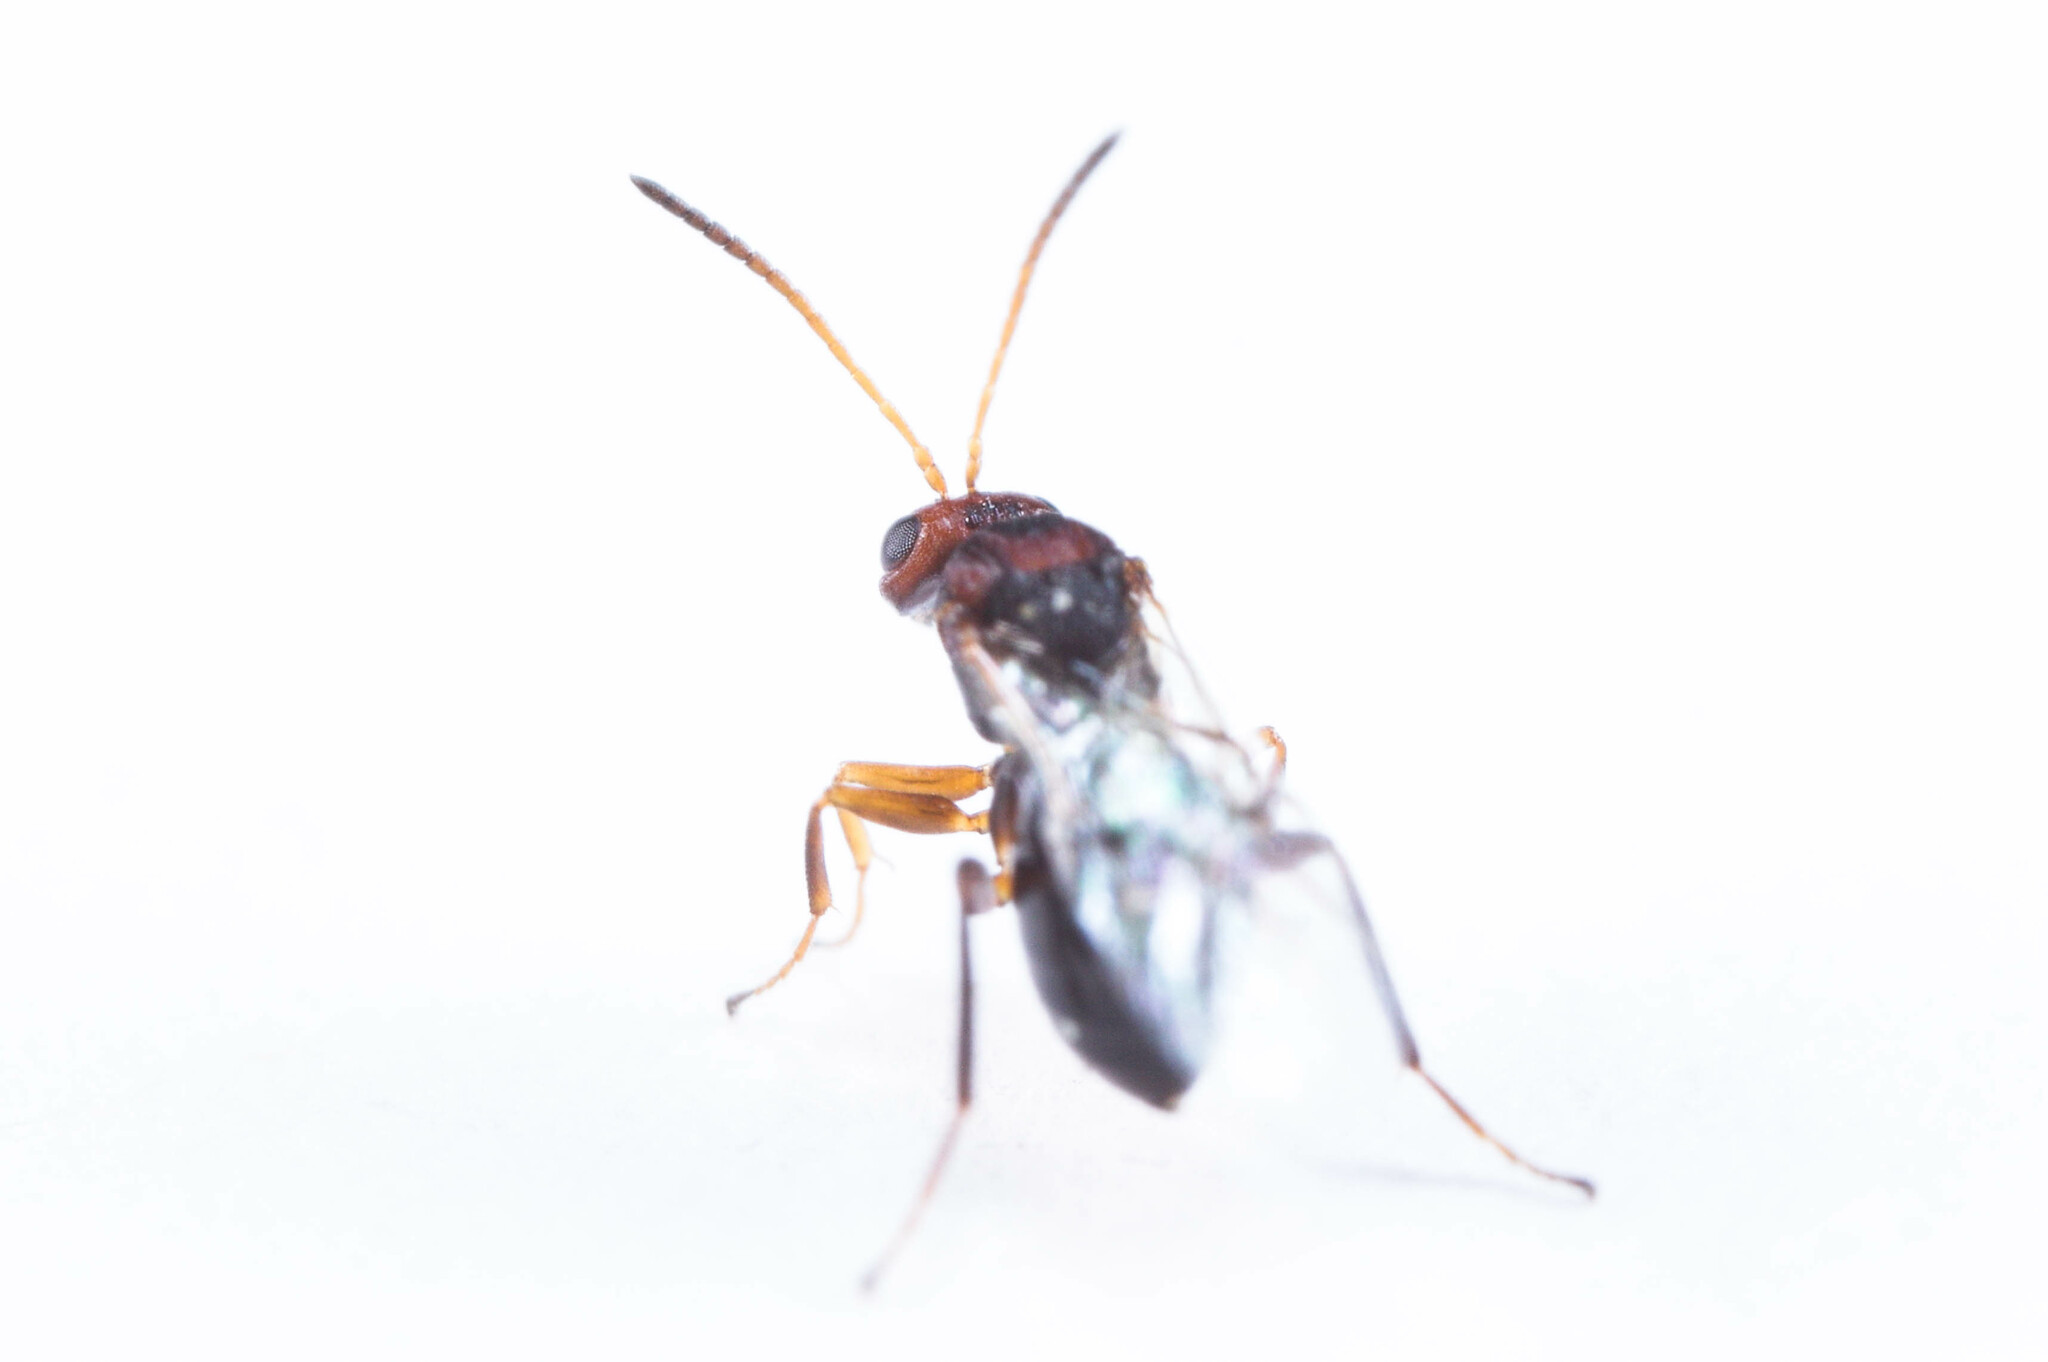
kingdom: Animalia
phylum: Arthropoda
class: Insecta
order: Hymenoptera
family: Cynipidae
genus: Melikaiella
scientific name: Melikaiella tumifica
